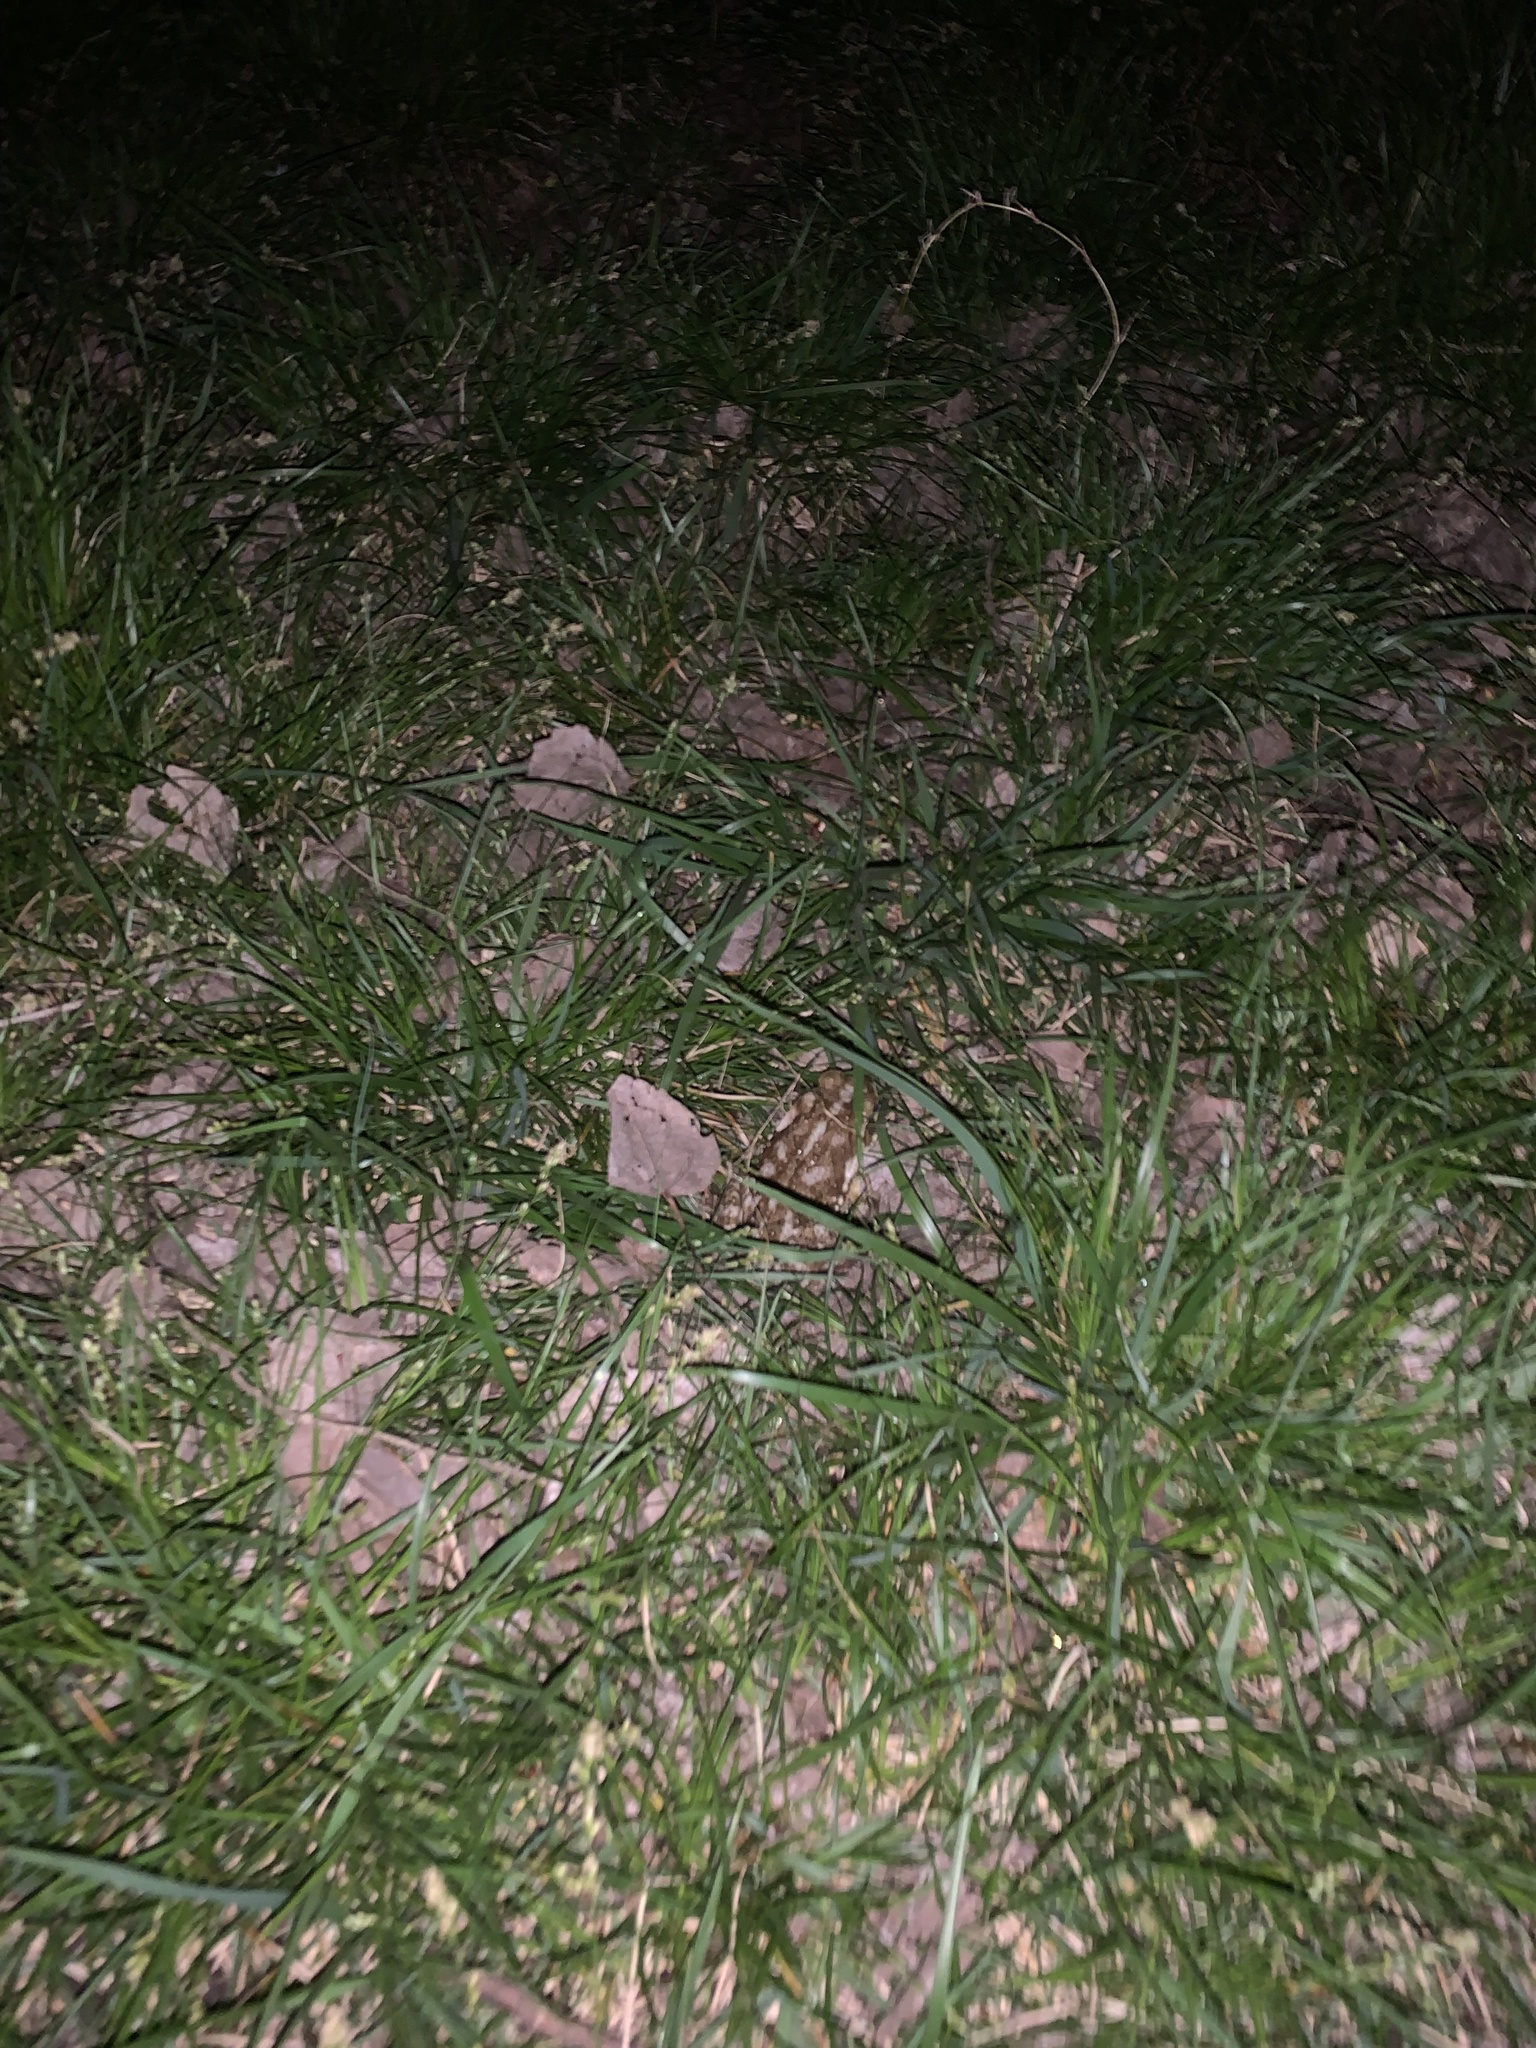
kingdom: Animalia
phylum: Chordata
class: Amphibia
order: Anura
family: Bufonidae
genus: Rhinella
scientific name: Rhinella arenarum
